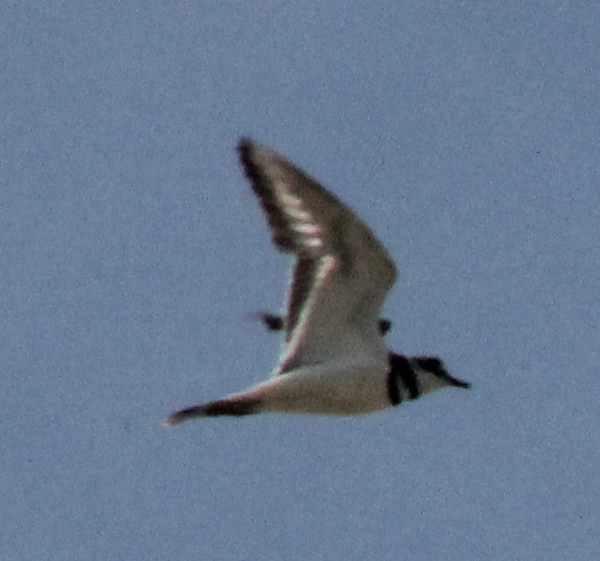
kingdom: Animalia
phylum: Chordata
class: Aves
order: Charadriiformes
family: Charadriidae
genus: Charadrius
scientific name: Charadrius vociferus
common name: Killdeer
